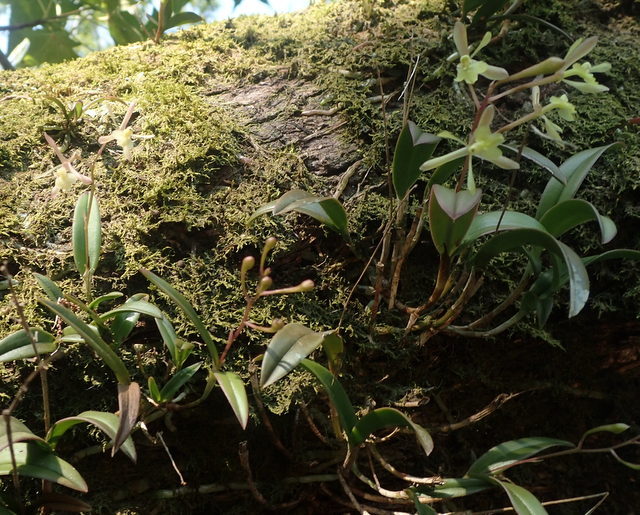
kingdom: Plantae
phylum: Tracheophyta
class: Liliopsida
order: Asparagales
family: Orchidaceae
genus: Epidendrum
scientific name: Epidendrum conopseum
